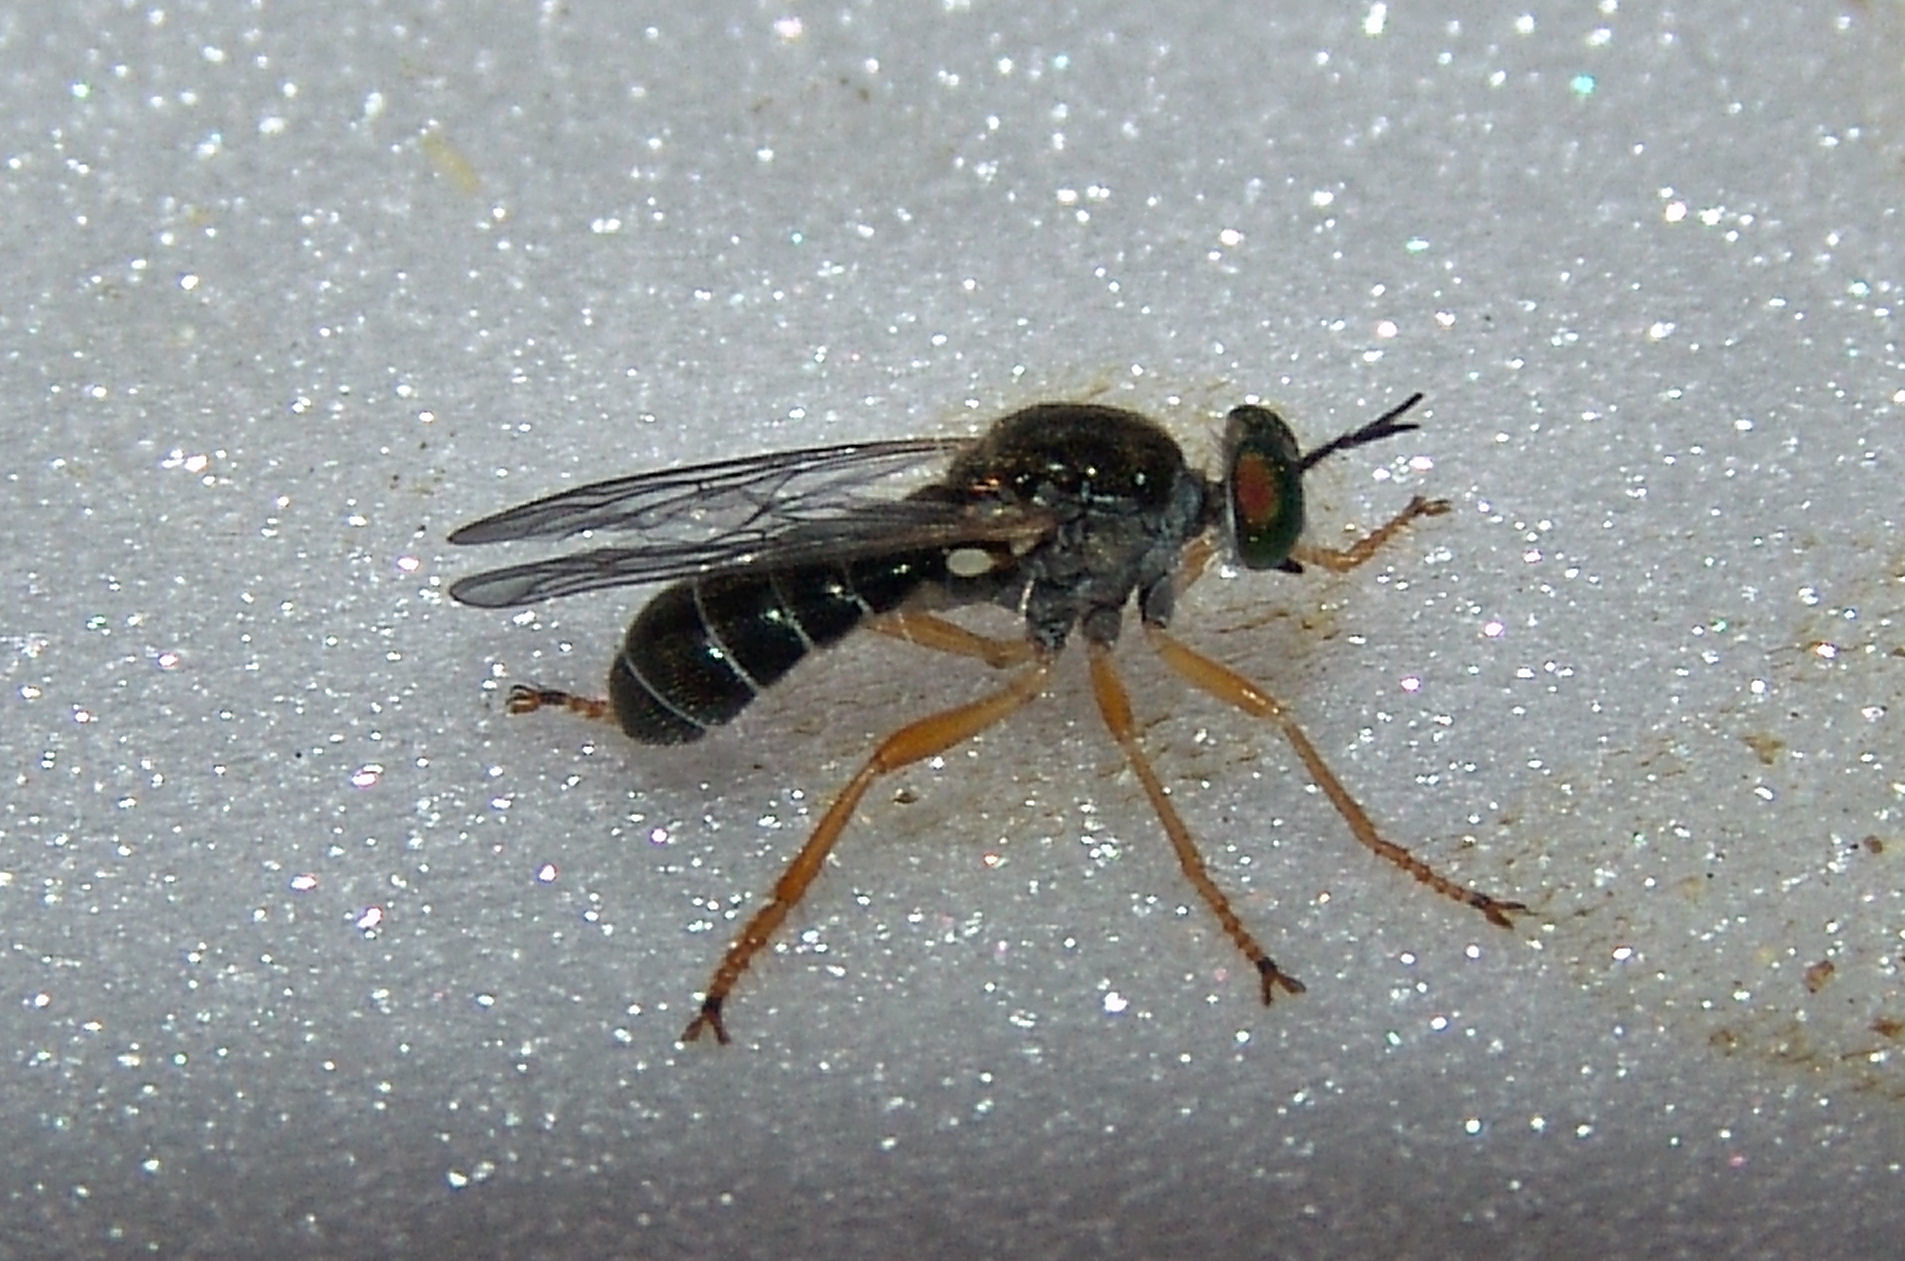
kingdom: Animalia
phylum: Arthropoda
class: Insecta
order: Diptera
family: Asilidae
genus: Atomosia
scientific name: Atomosia sayii
